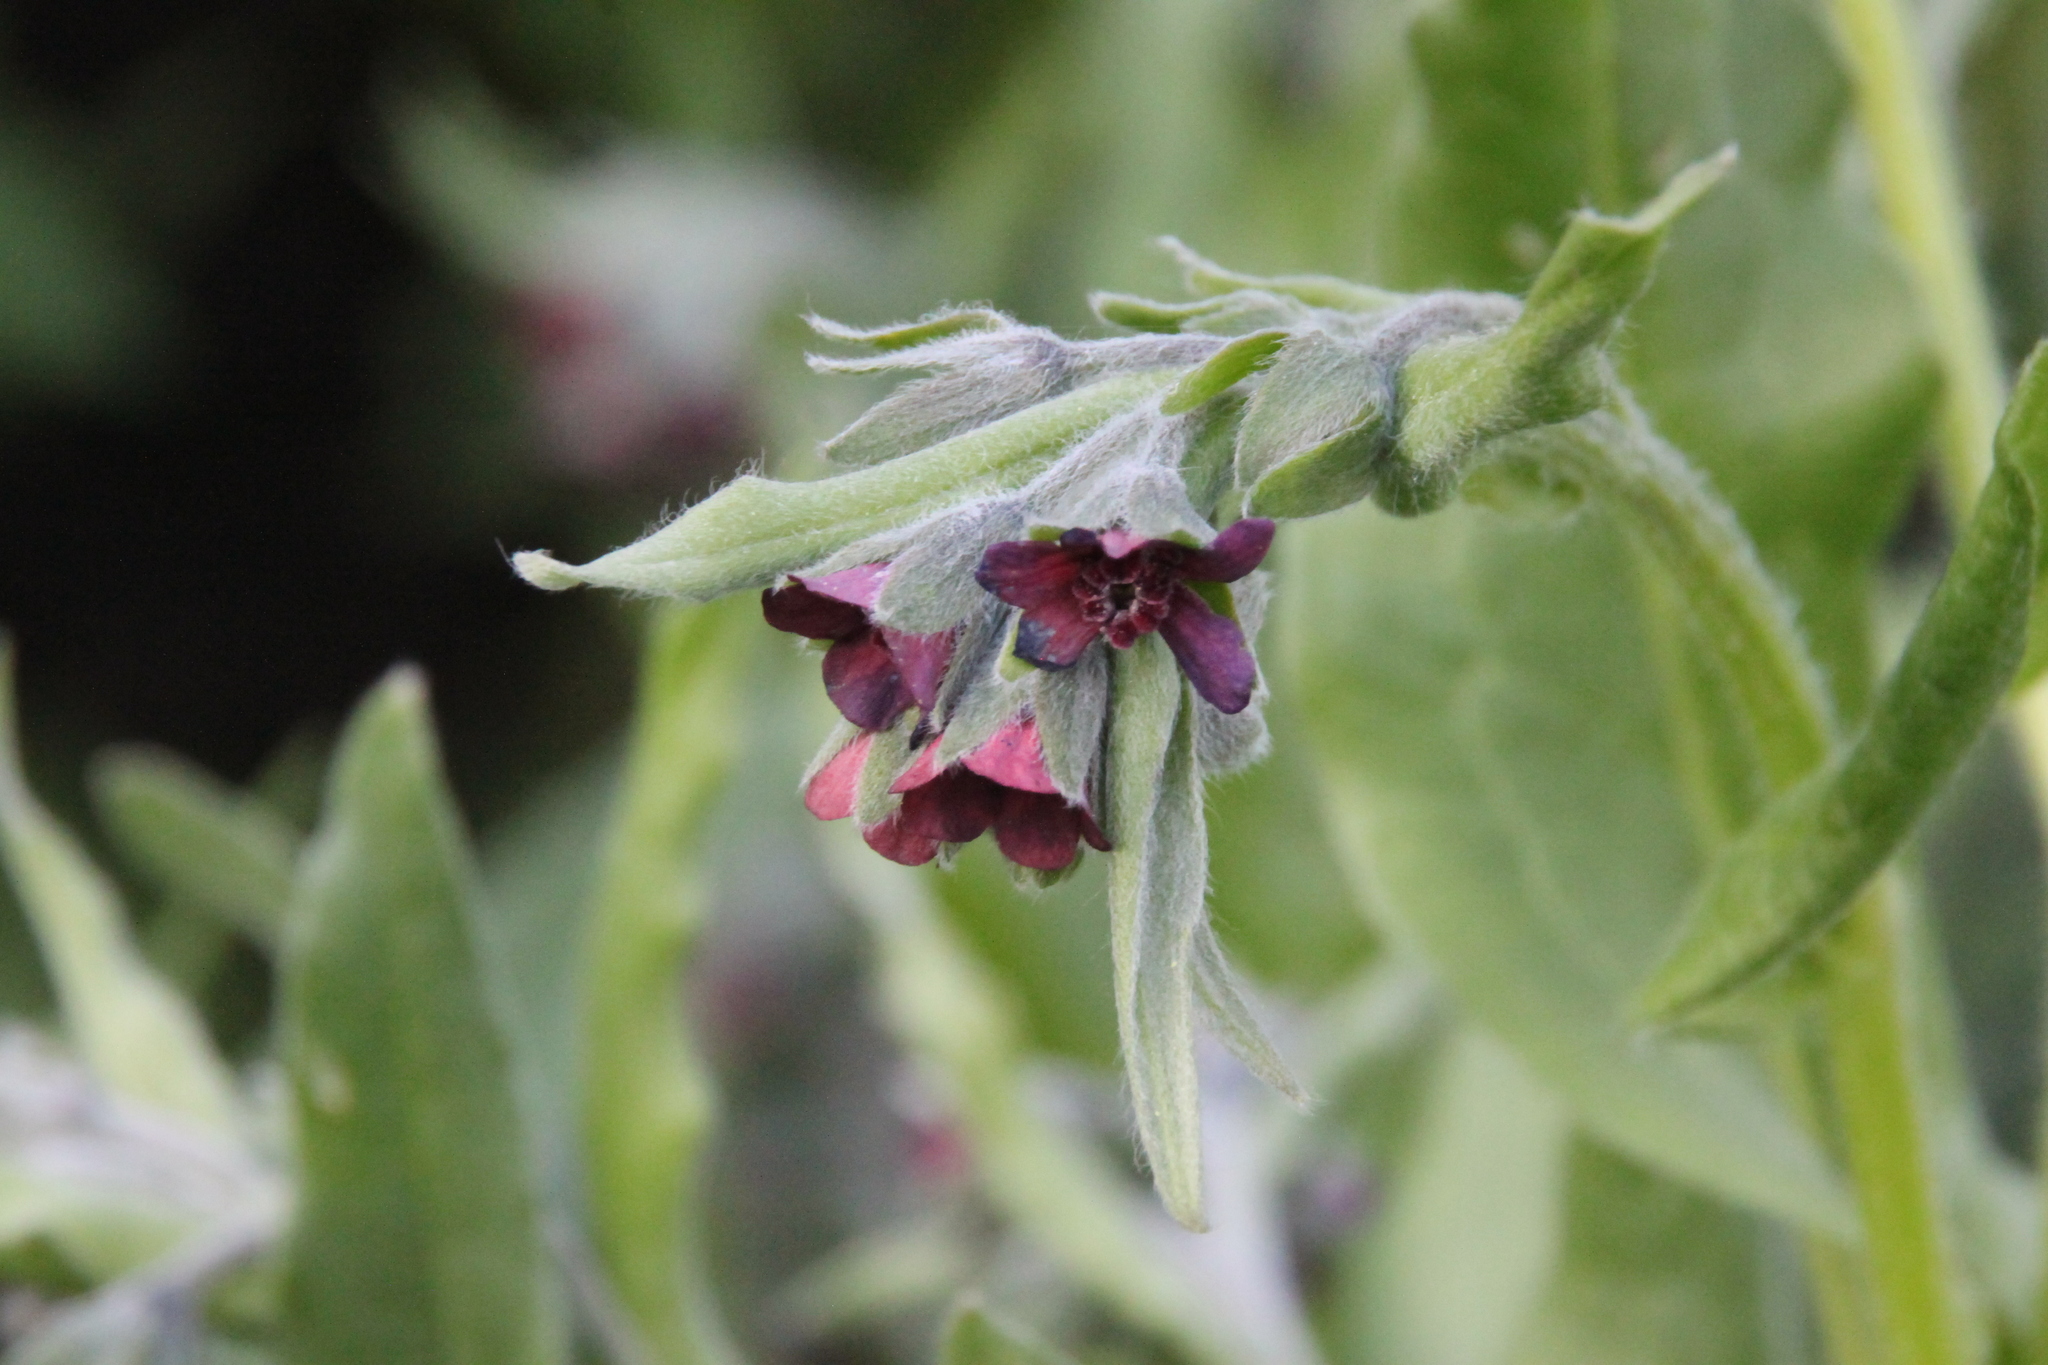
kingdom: Plantae
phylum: Tracheophyta
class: Magnoliopsida
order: Boraginales
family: Boraginaceae
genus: Cynoglossum
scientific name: Cynoglossum officinale
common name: Hound's-tongue
